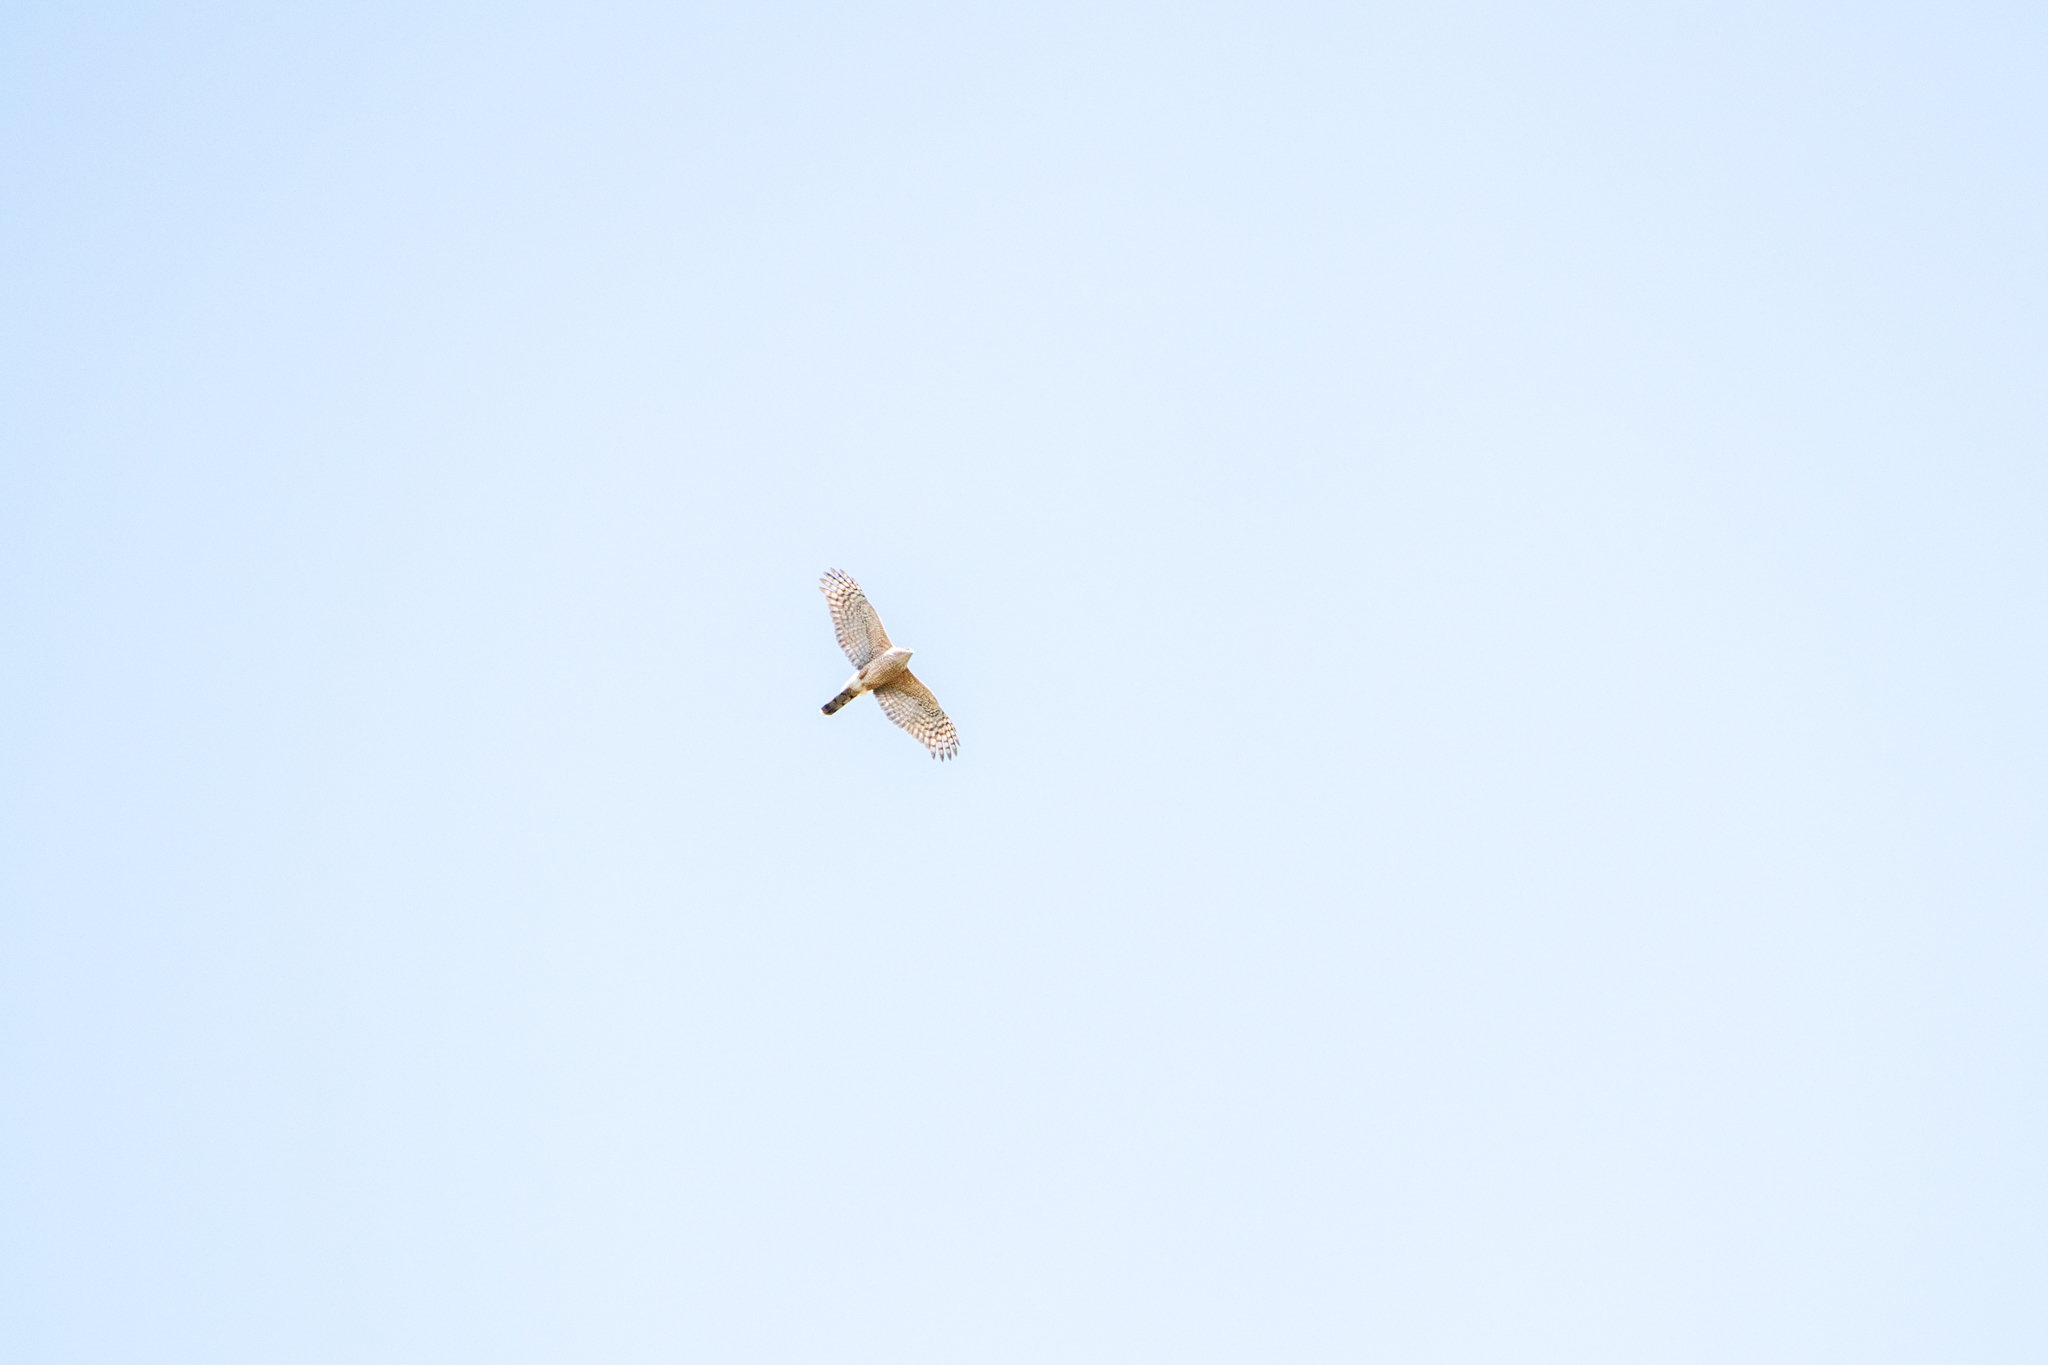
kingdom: Animalia
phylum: Chordata
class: Aves
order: Accipitriformes
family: Accipitridae
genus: Accipiter
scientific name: Accipiter cooperii
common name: Cooper's hawk
